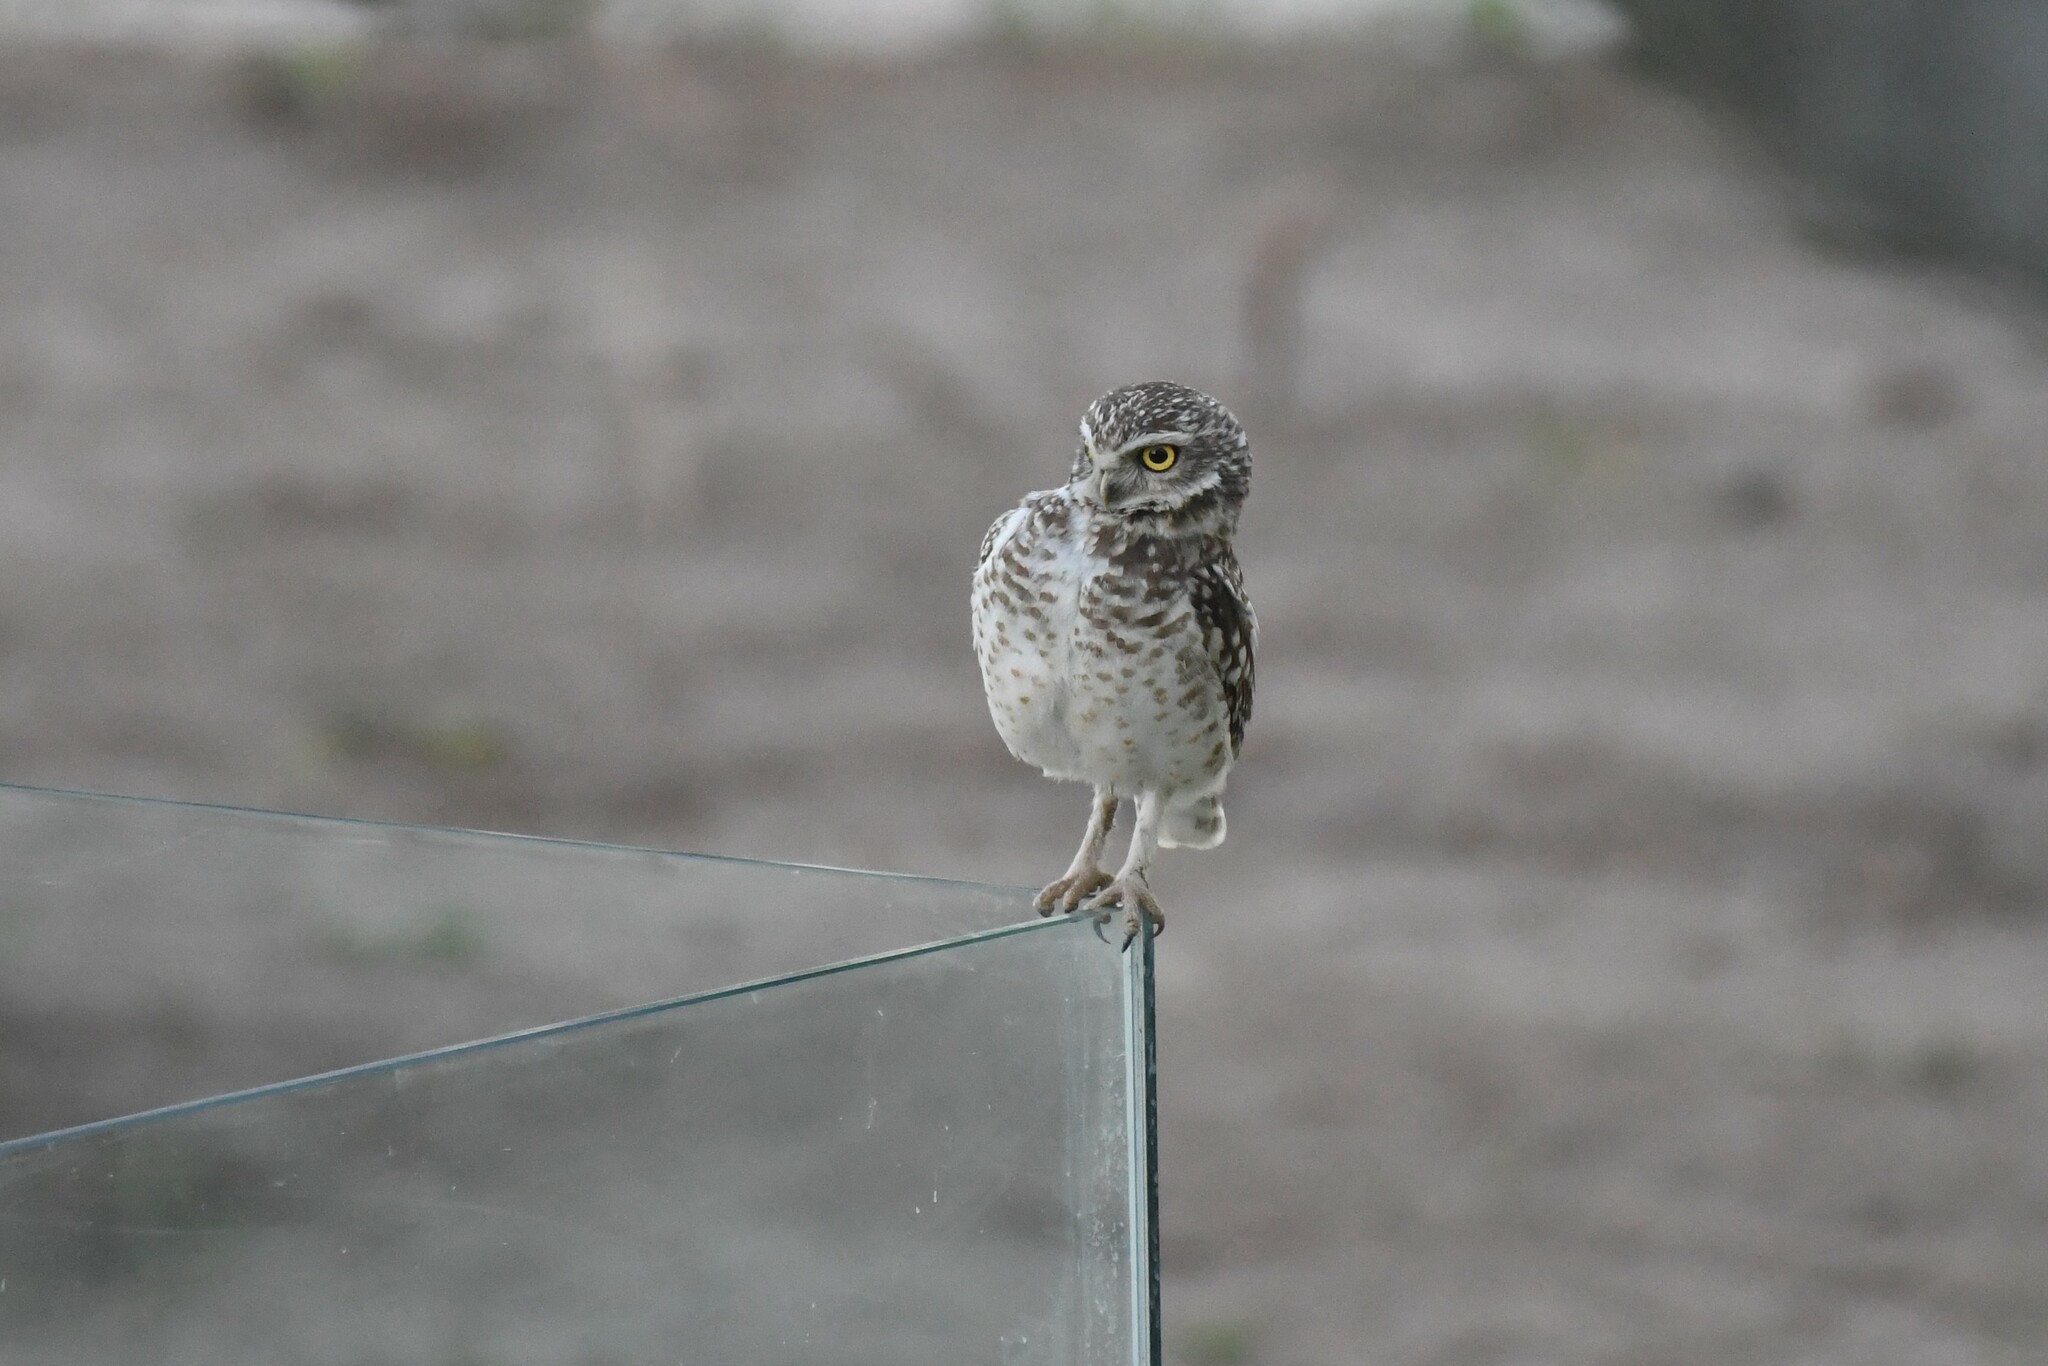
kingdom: Animalia
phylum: Chordata
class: Aves
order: Strigiformes
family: Strigidae
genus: Athene
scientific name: Athene cunicularia
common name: Burrowing owl
